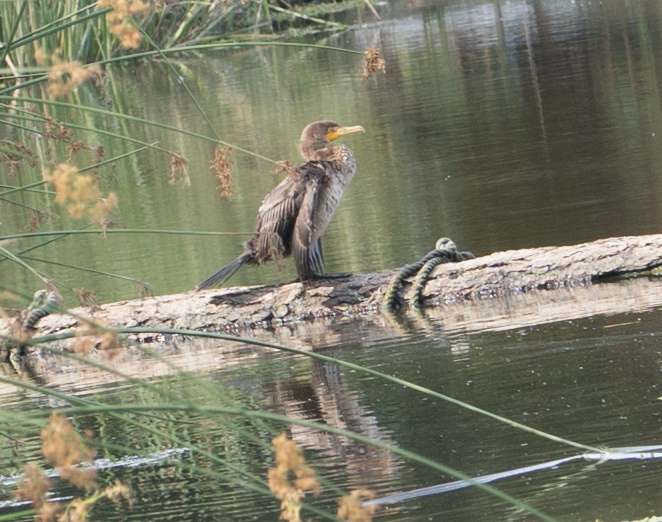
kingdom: Animalia
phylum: Chordata
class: Aves
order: Suliformes
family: Phalacrocoracidae
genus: Phalacrocorax
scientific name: Phalacrocorax auritus
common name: Double-crested cormorant
